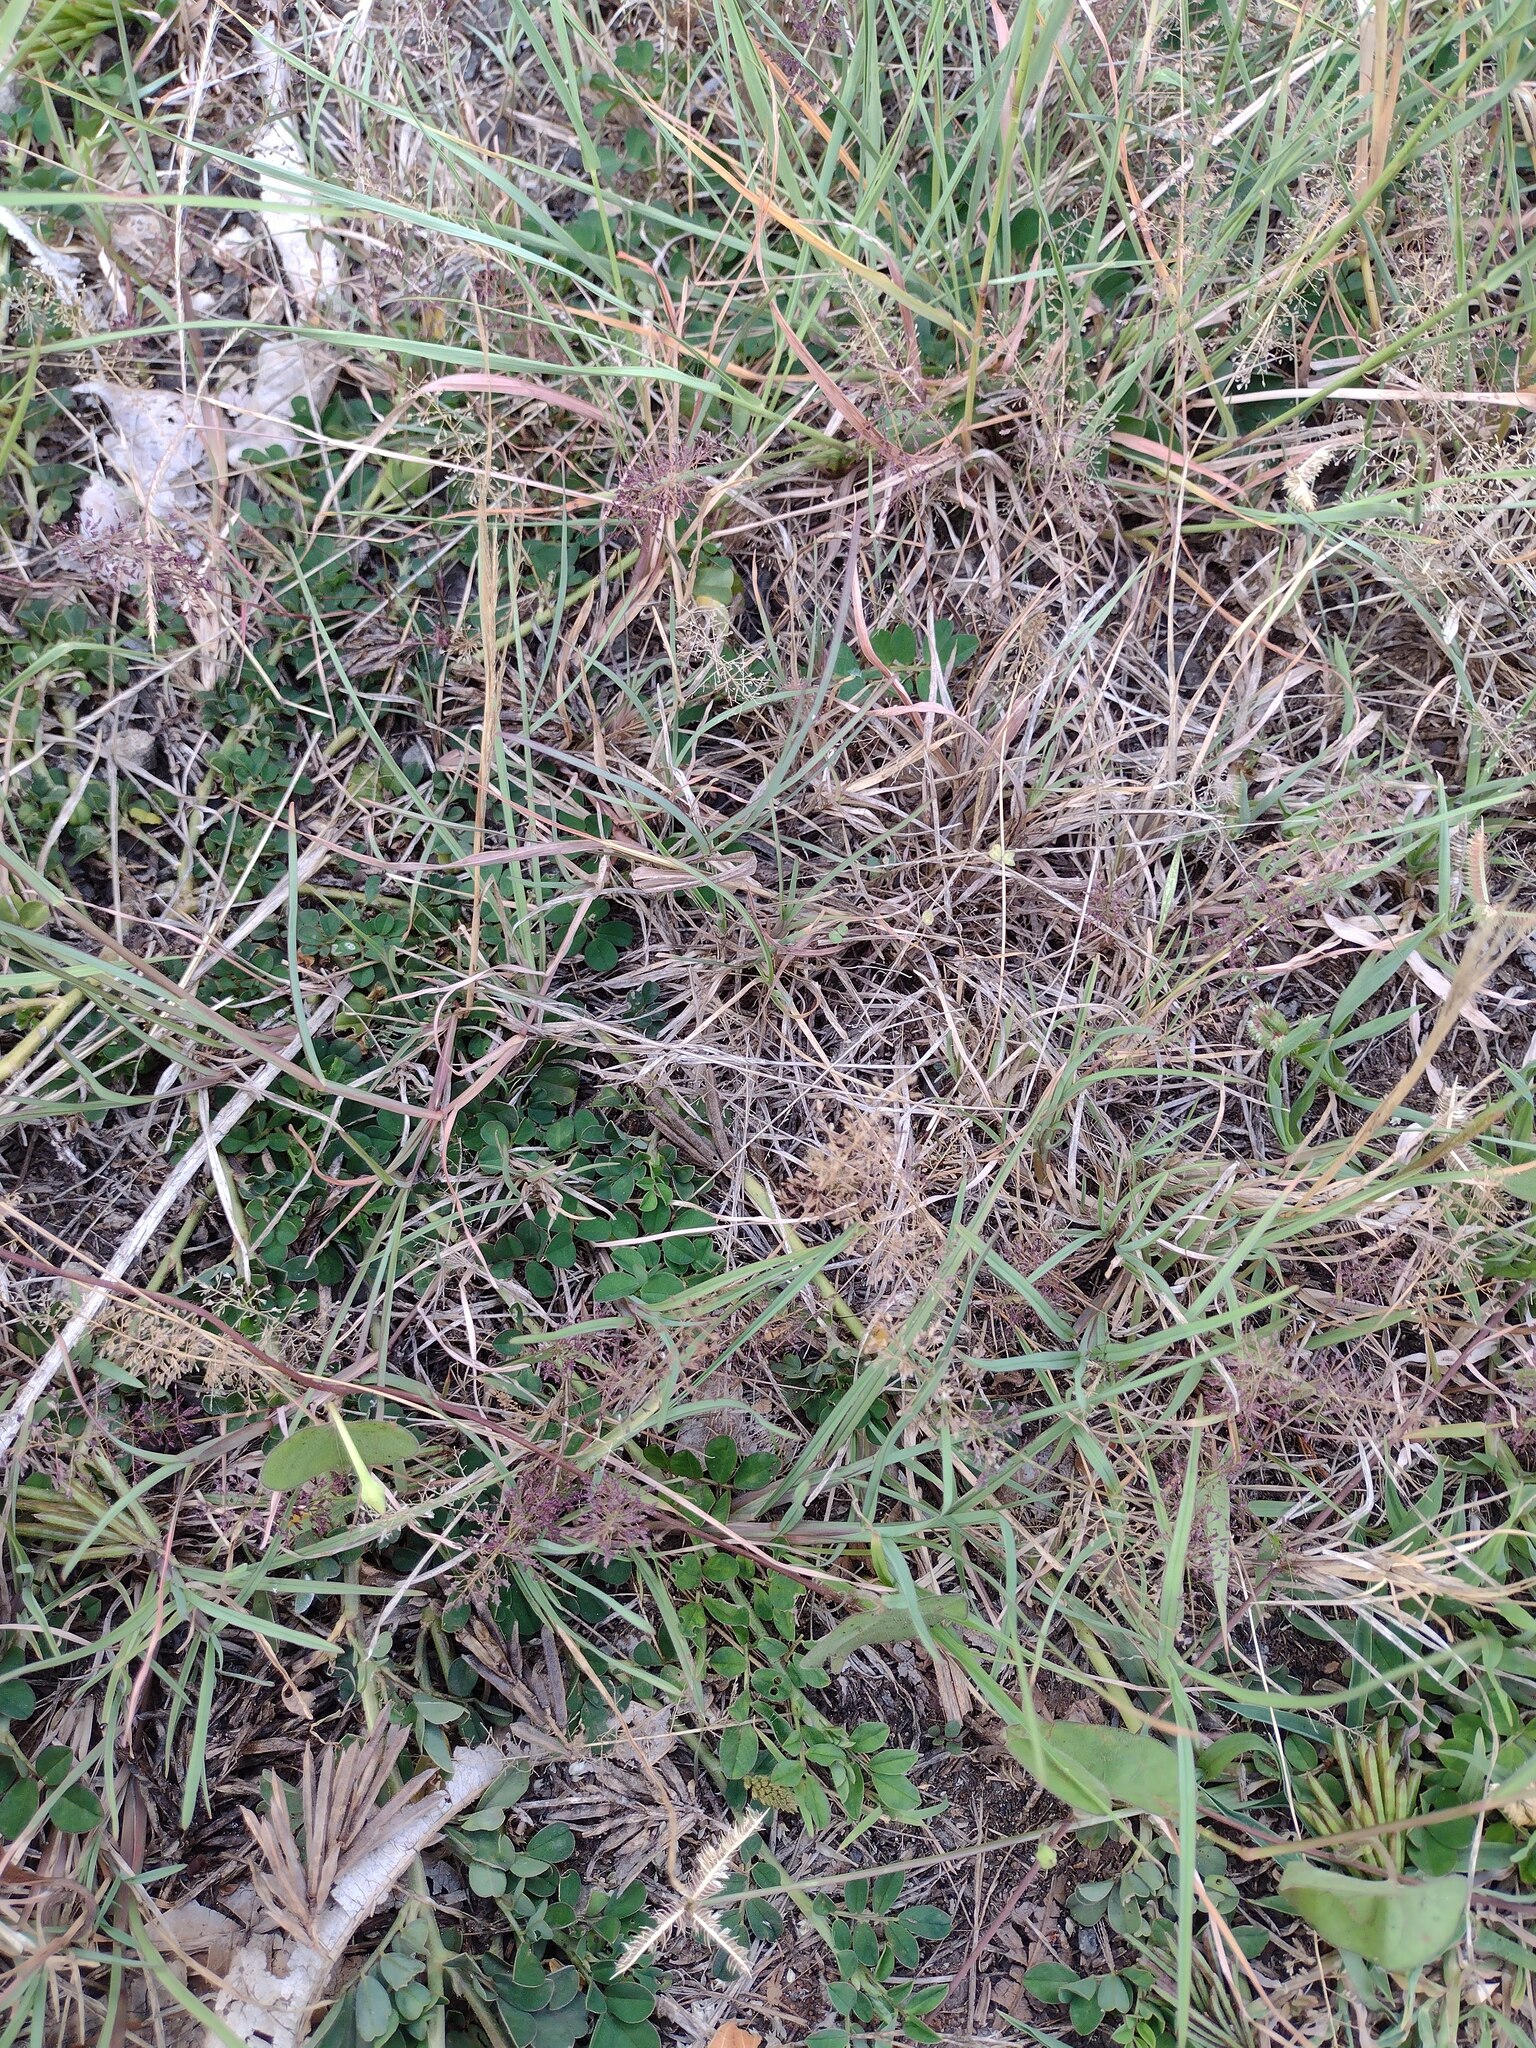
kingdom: Plantae
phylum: Tracheophyta
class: Liliopsida
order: Poales
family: Poaceae
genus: Eragrostis
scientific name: Eragrostis tenella
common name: Japanese lovegrass
